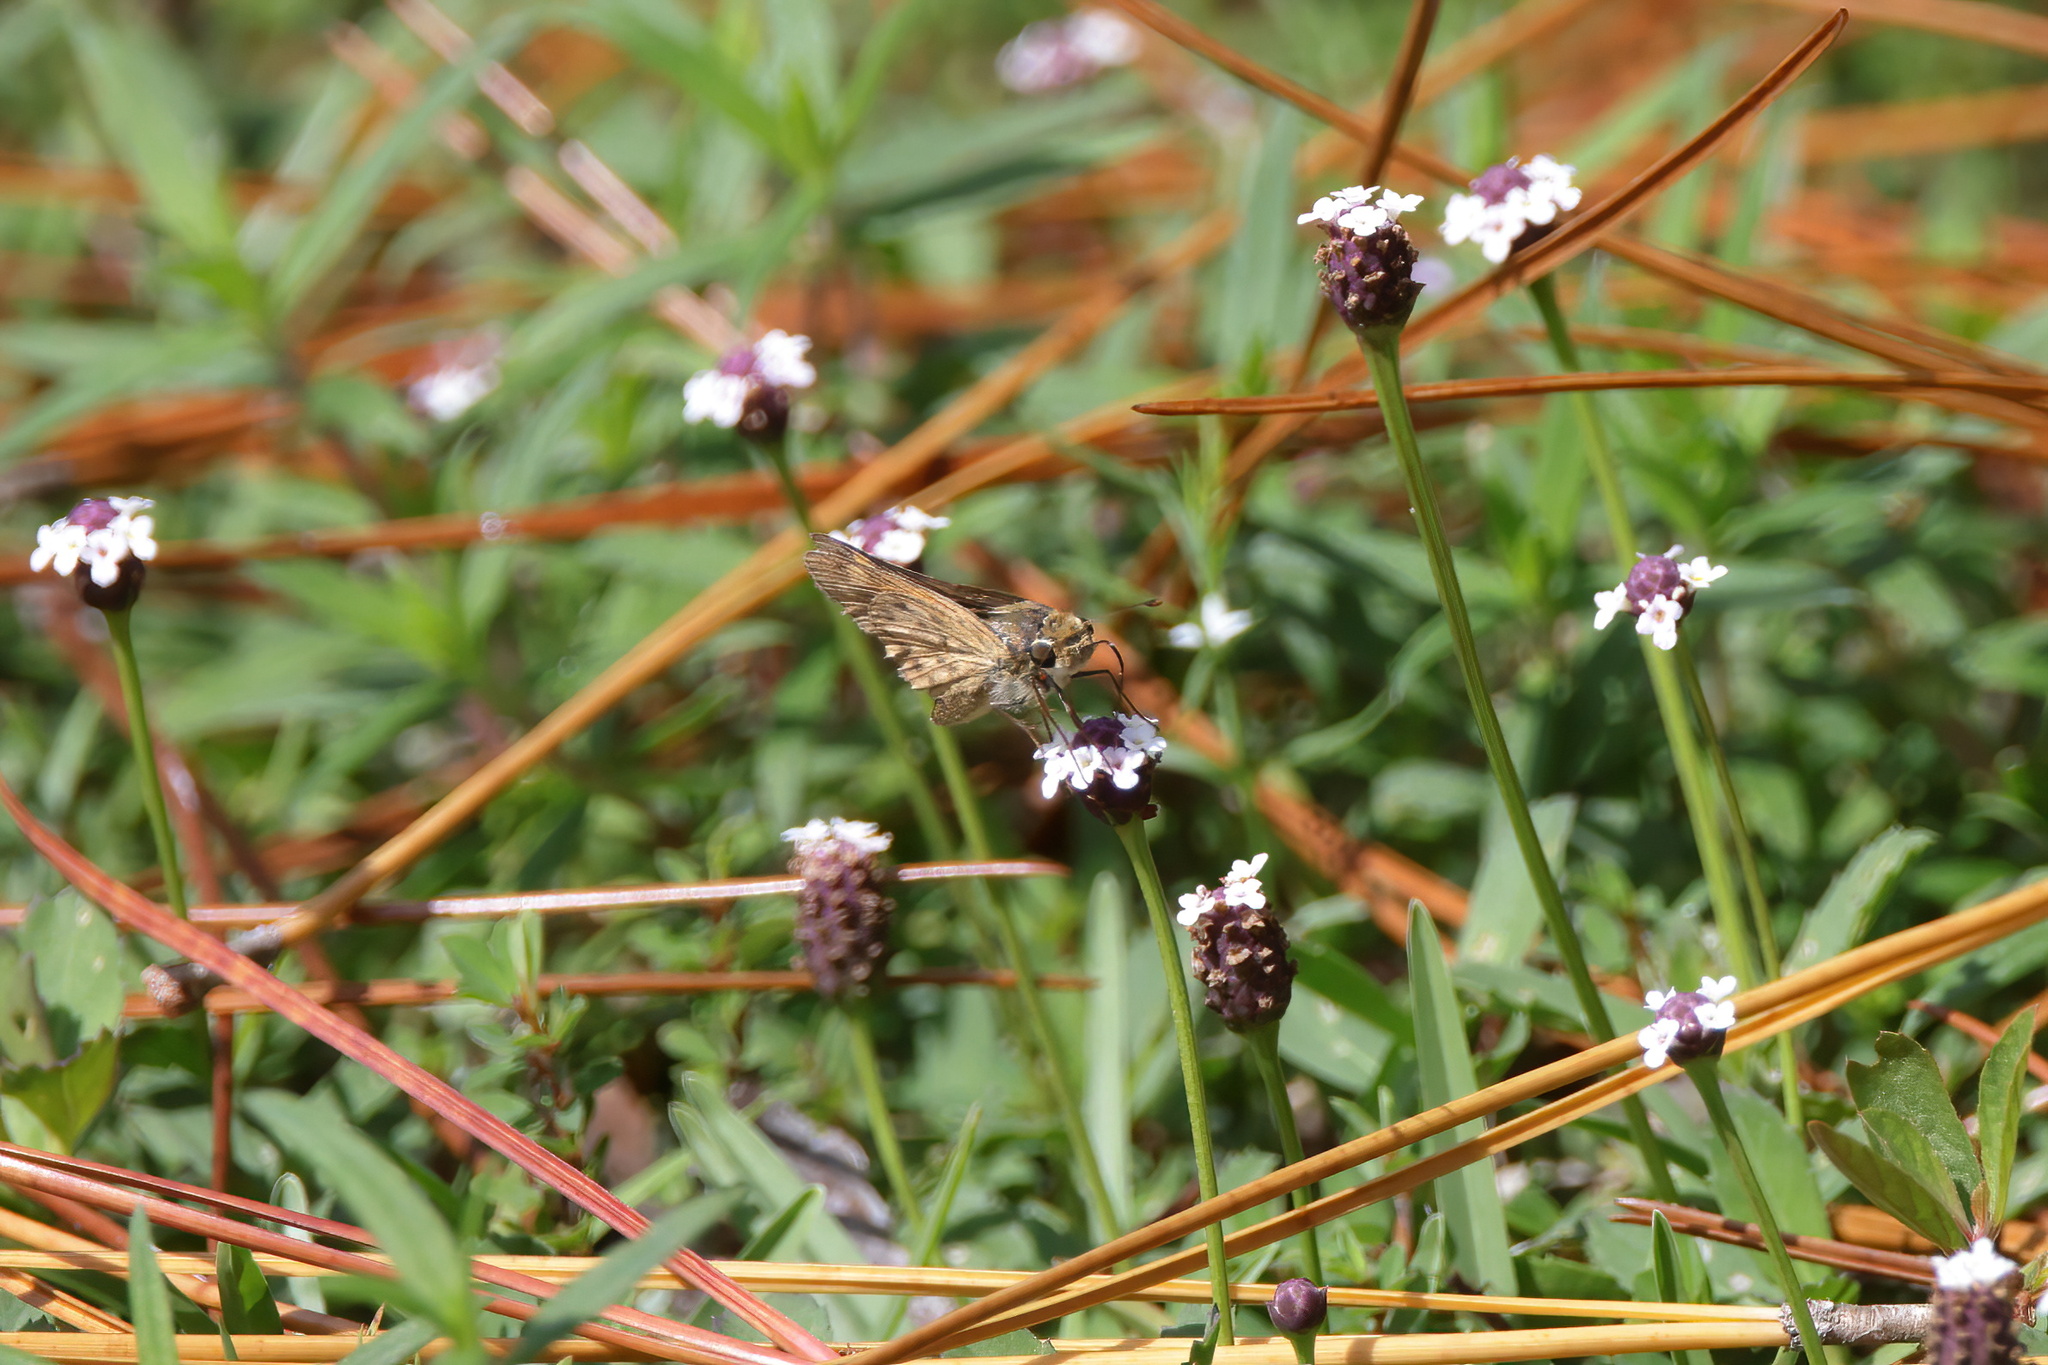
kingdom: Animalia
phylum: Arthropoda
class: Insecta
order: Lepidoptera
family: Hesperiidae
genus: Hylephila
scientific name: Hylephila phyleus
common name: Fiery skipper
